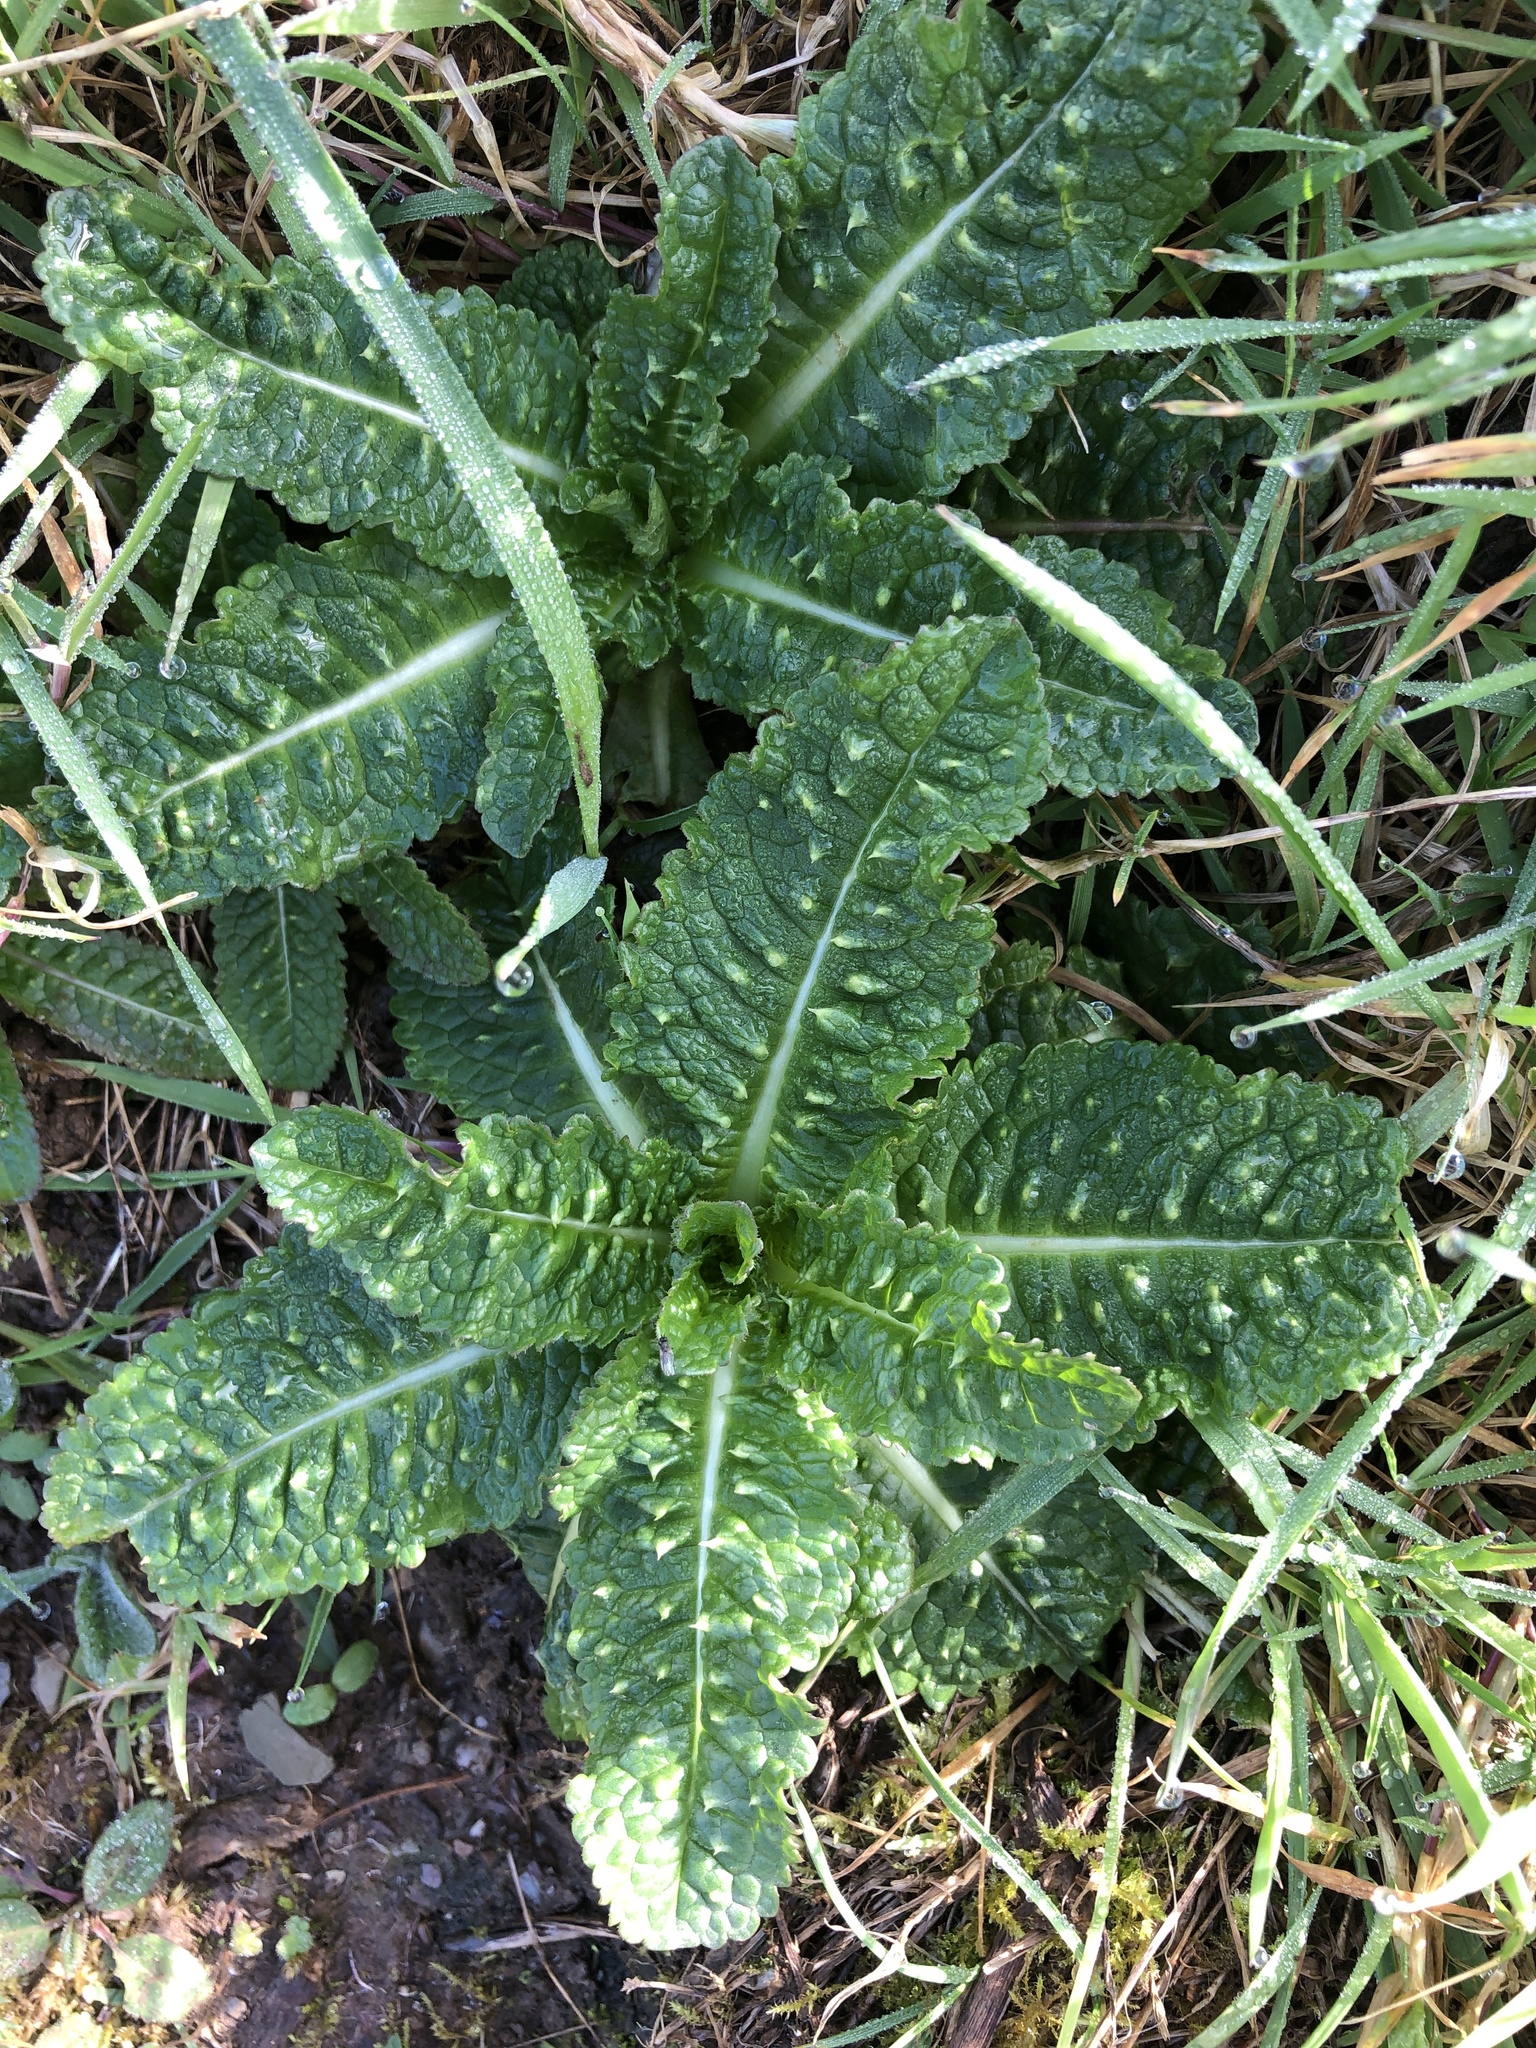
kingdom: Plantae
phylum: Tracheophyta
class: Magnoliopsida
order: Ericales
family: Primulaceae
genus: Primula
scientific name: Primula vulgaris
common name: Primrose
